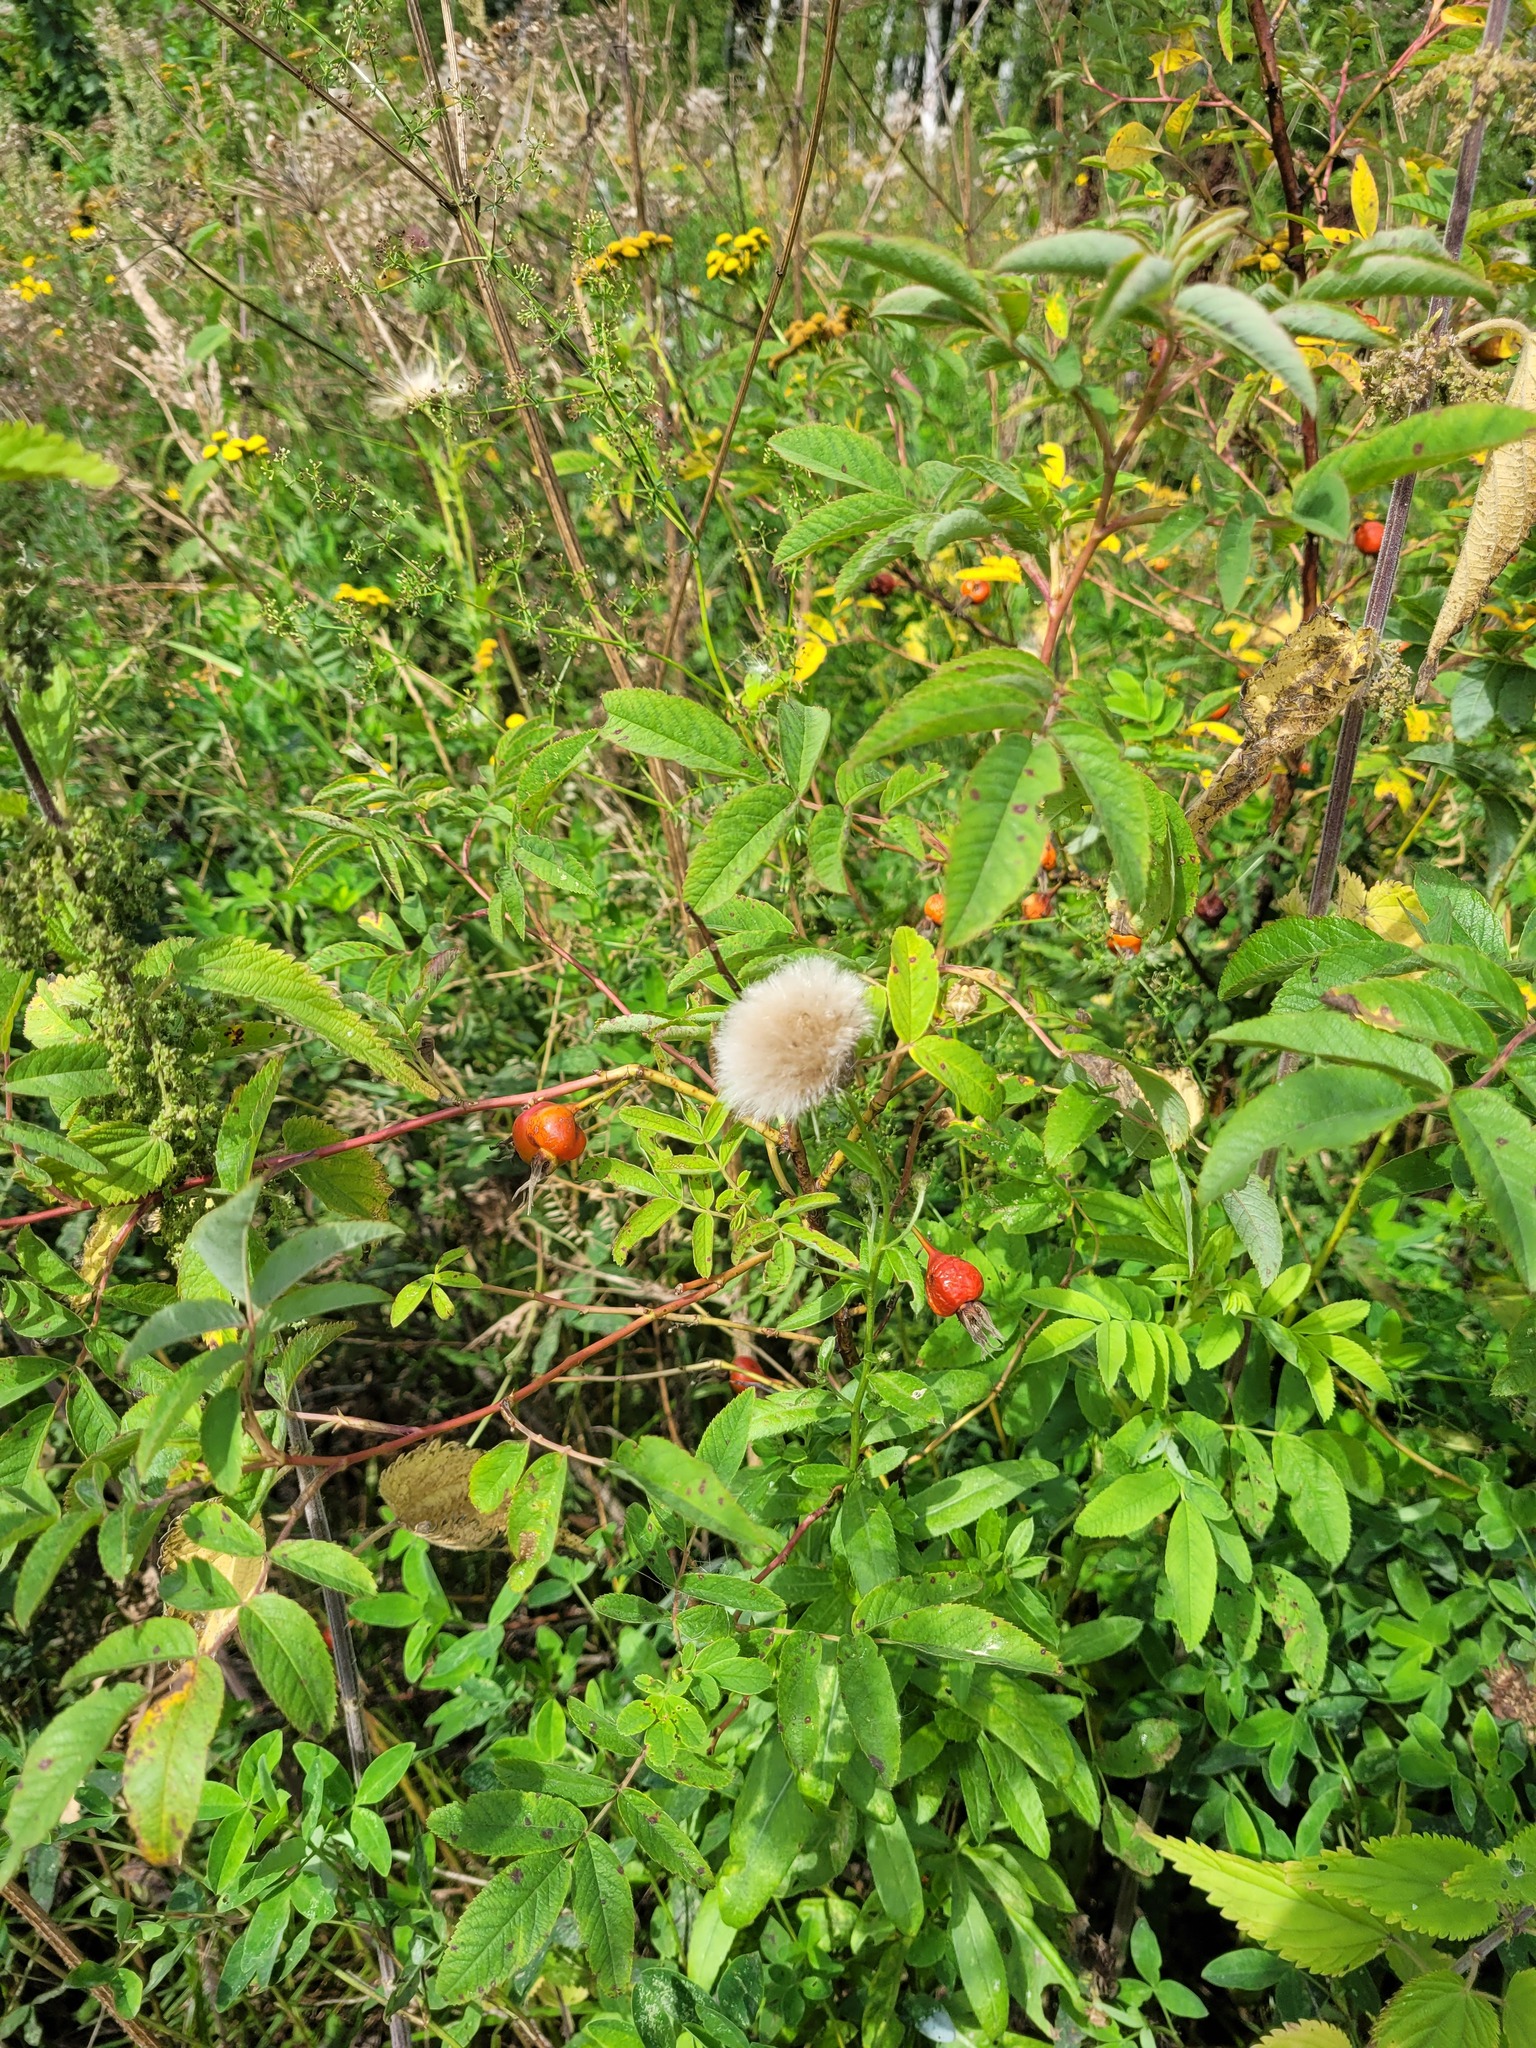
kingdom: Plantae
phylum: Tracheophyta
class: Magnoliopsida
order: Rosales
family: Rosaceae
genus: Rosa
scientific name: Rosa majalis
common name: Cinnamon rose
